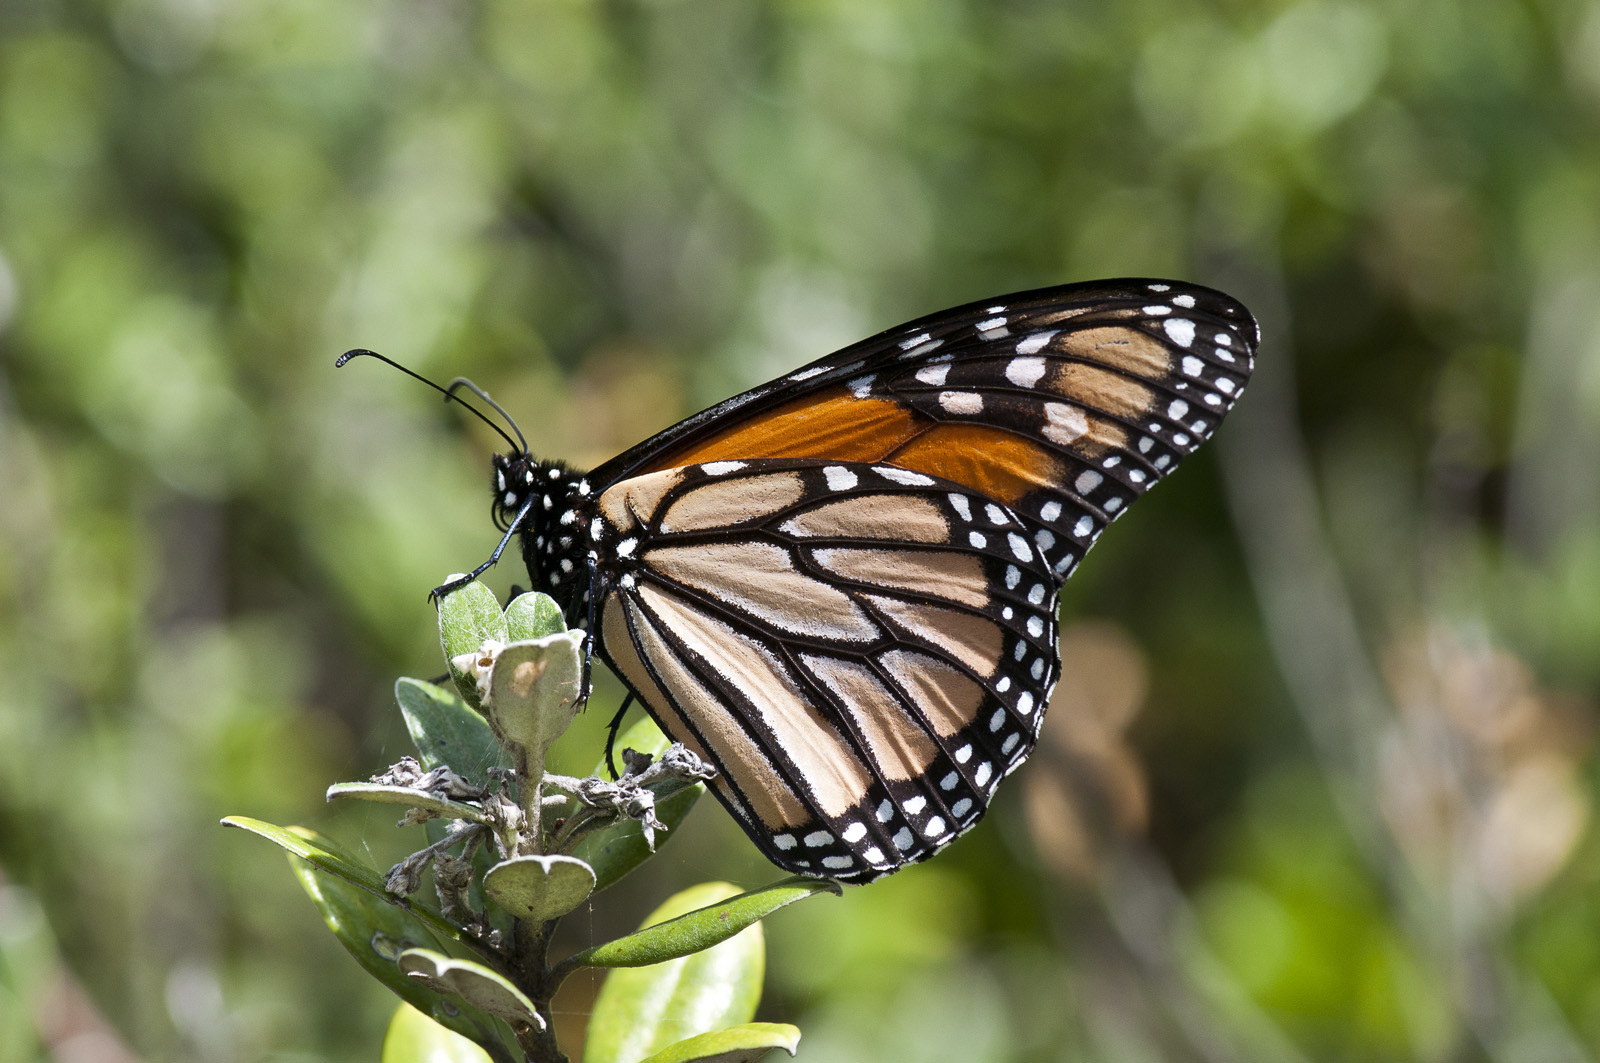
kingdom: Animalia
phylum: Arthropoda
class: Insecta
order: Lepidoptera
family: Nymphalidae
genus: Danaus
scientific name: Danaus plexippus
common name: Monarch
